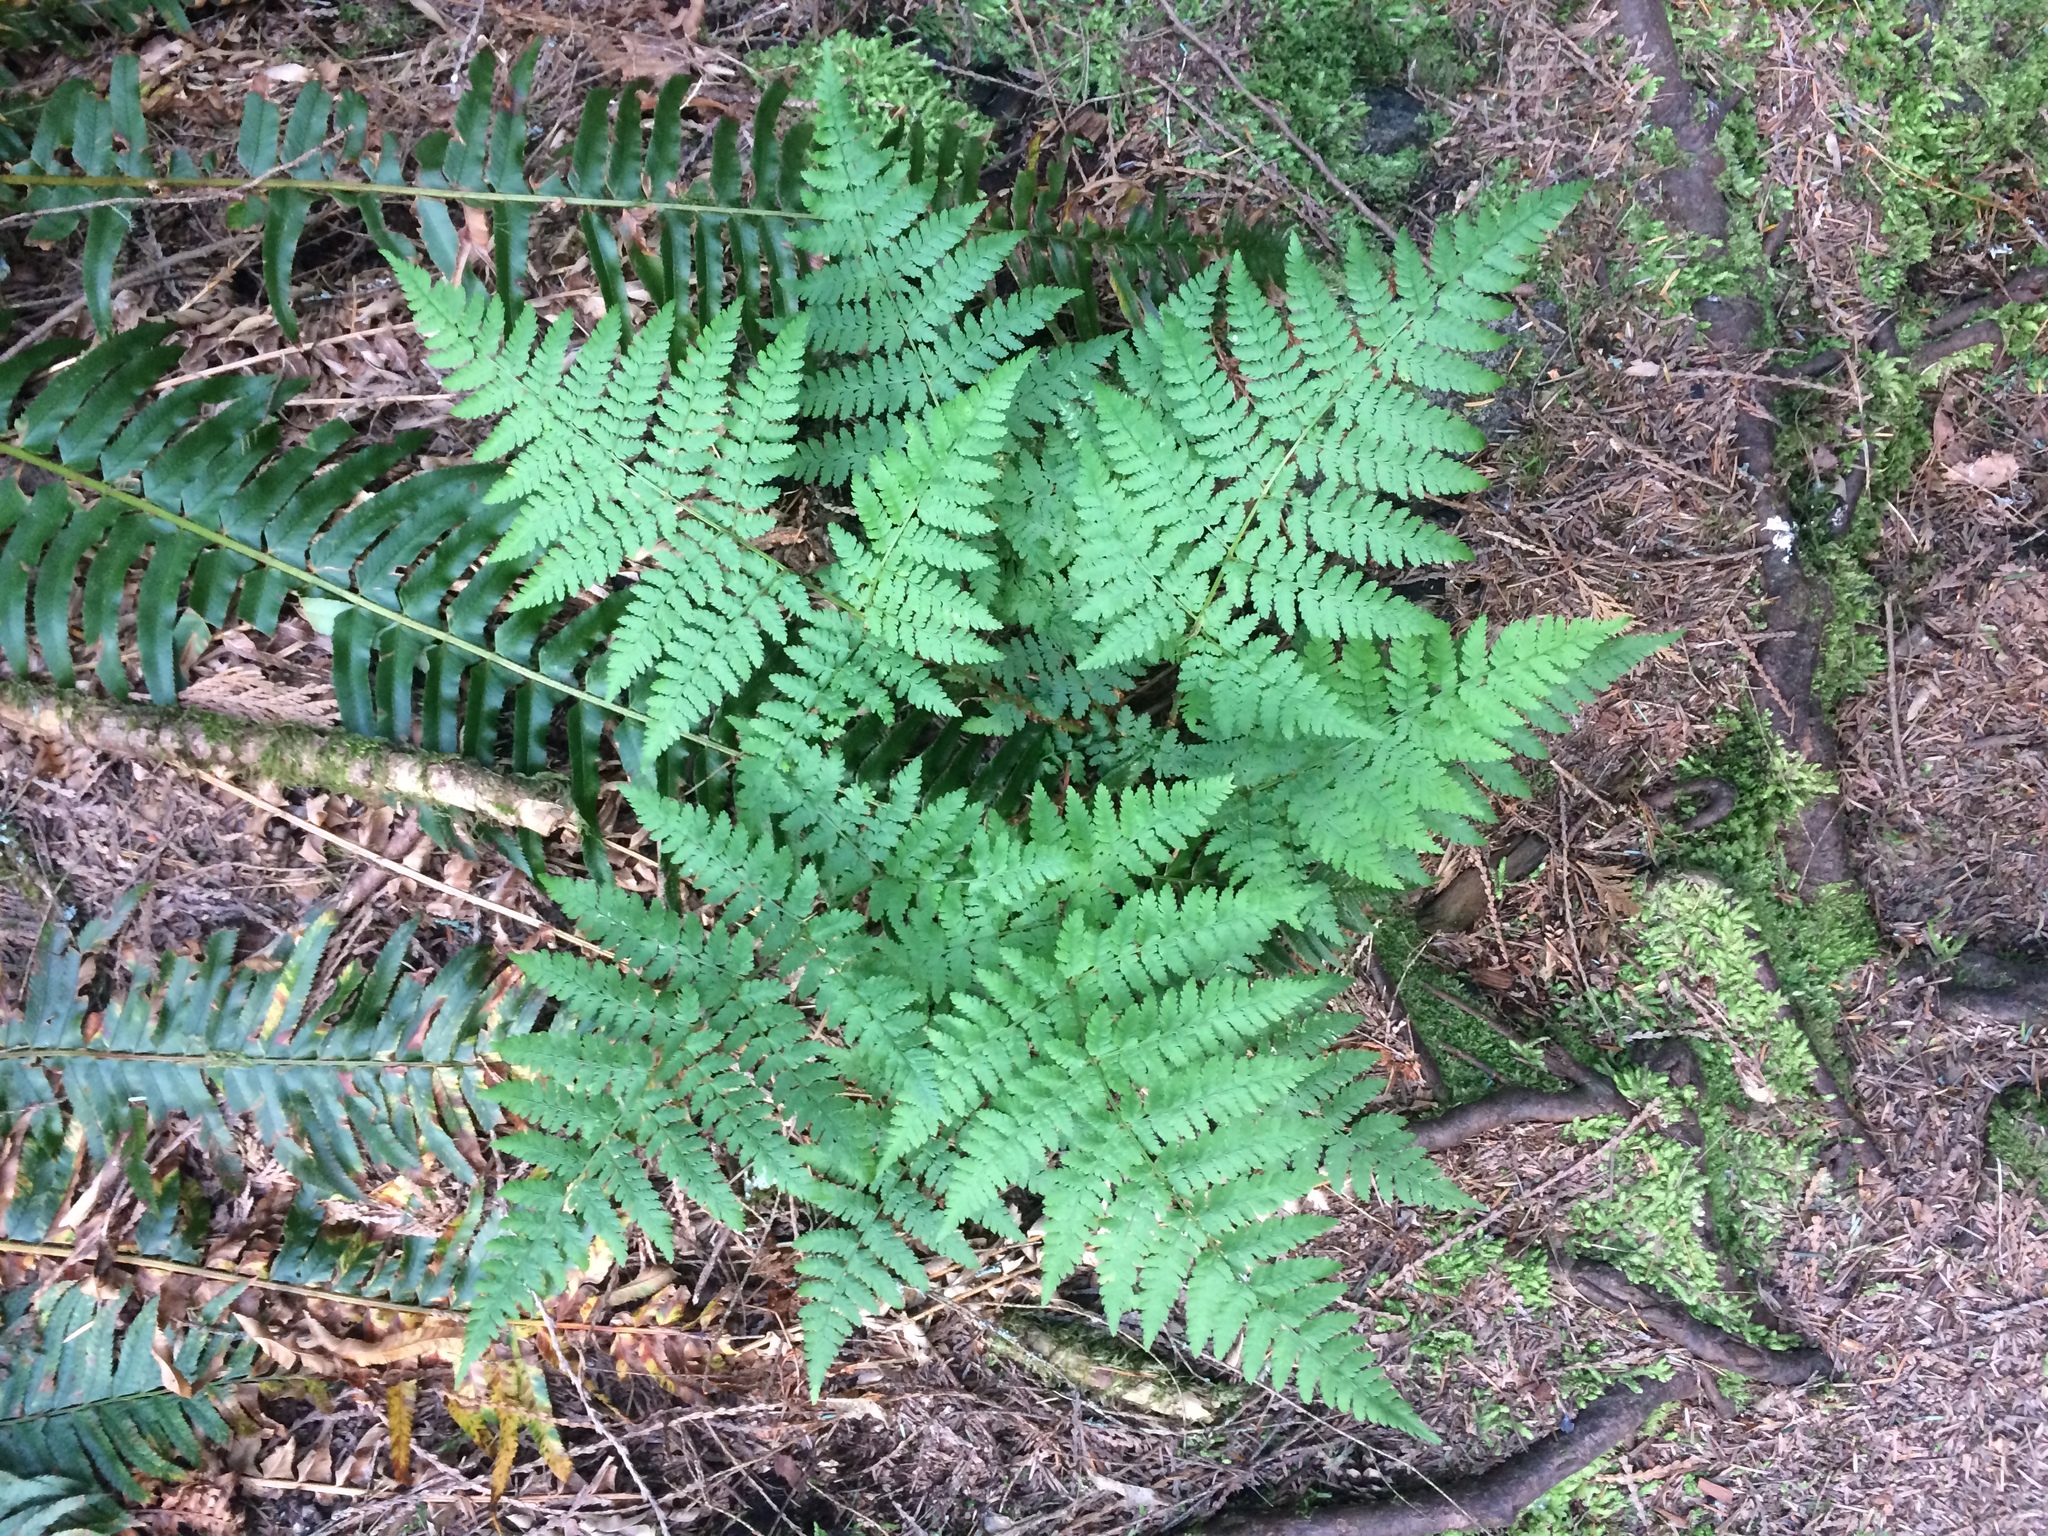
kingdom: Plantae
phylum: Tracheophyta
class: Polypodiopsida
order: Polypodiales
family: Dryopteridaceae
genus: Dryopteris
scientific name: Dryopteris expansa
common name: Northern buckler fern
